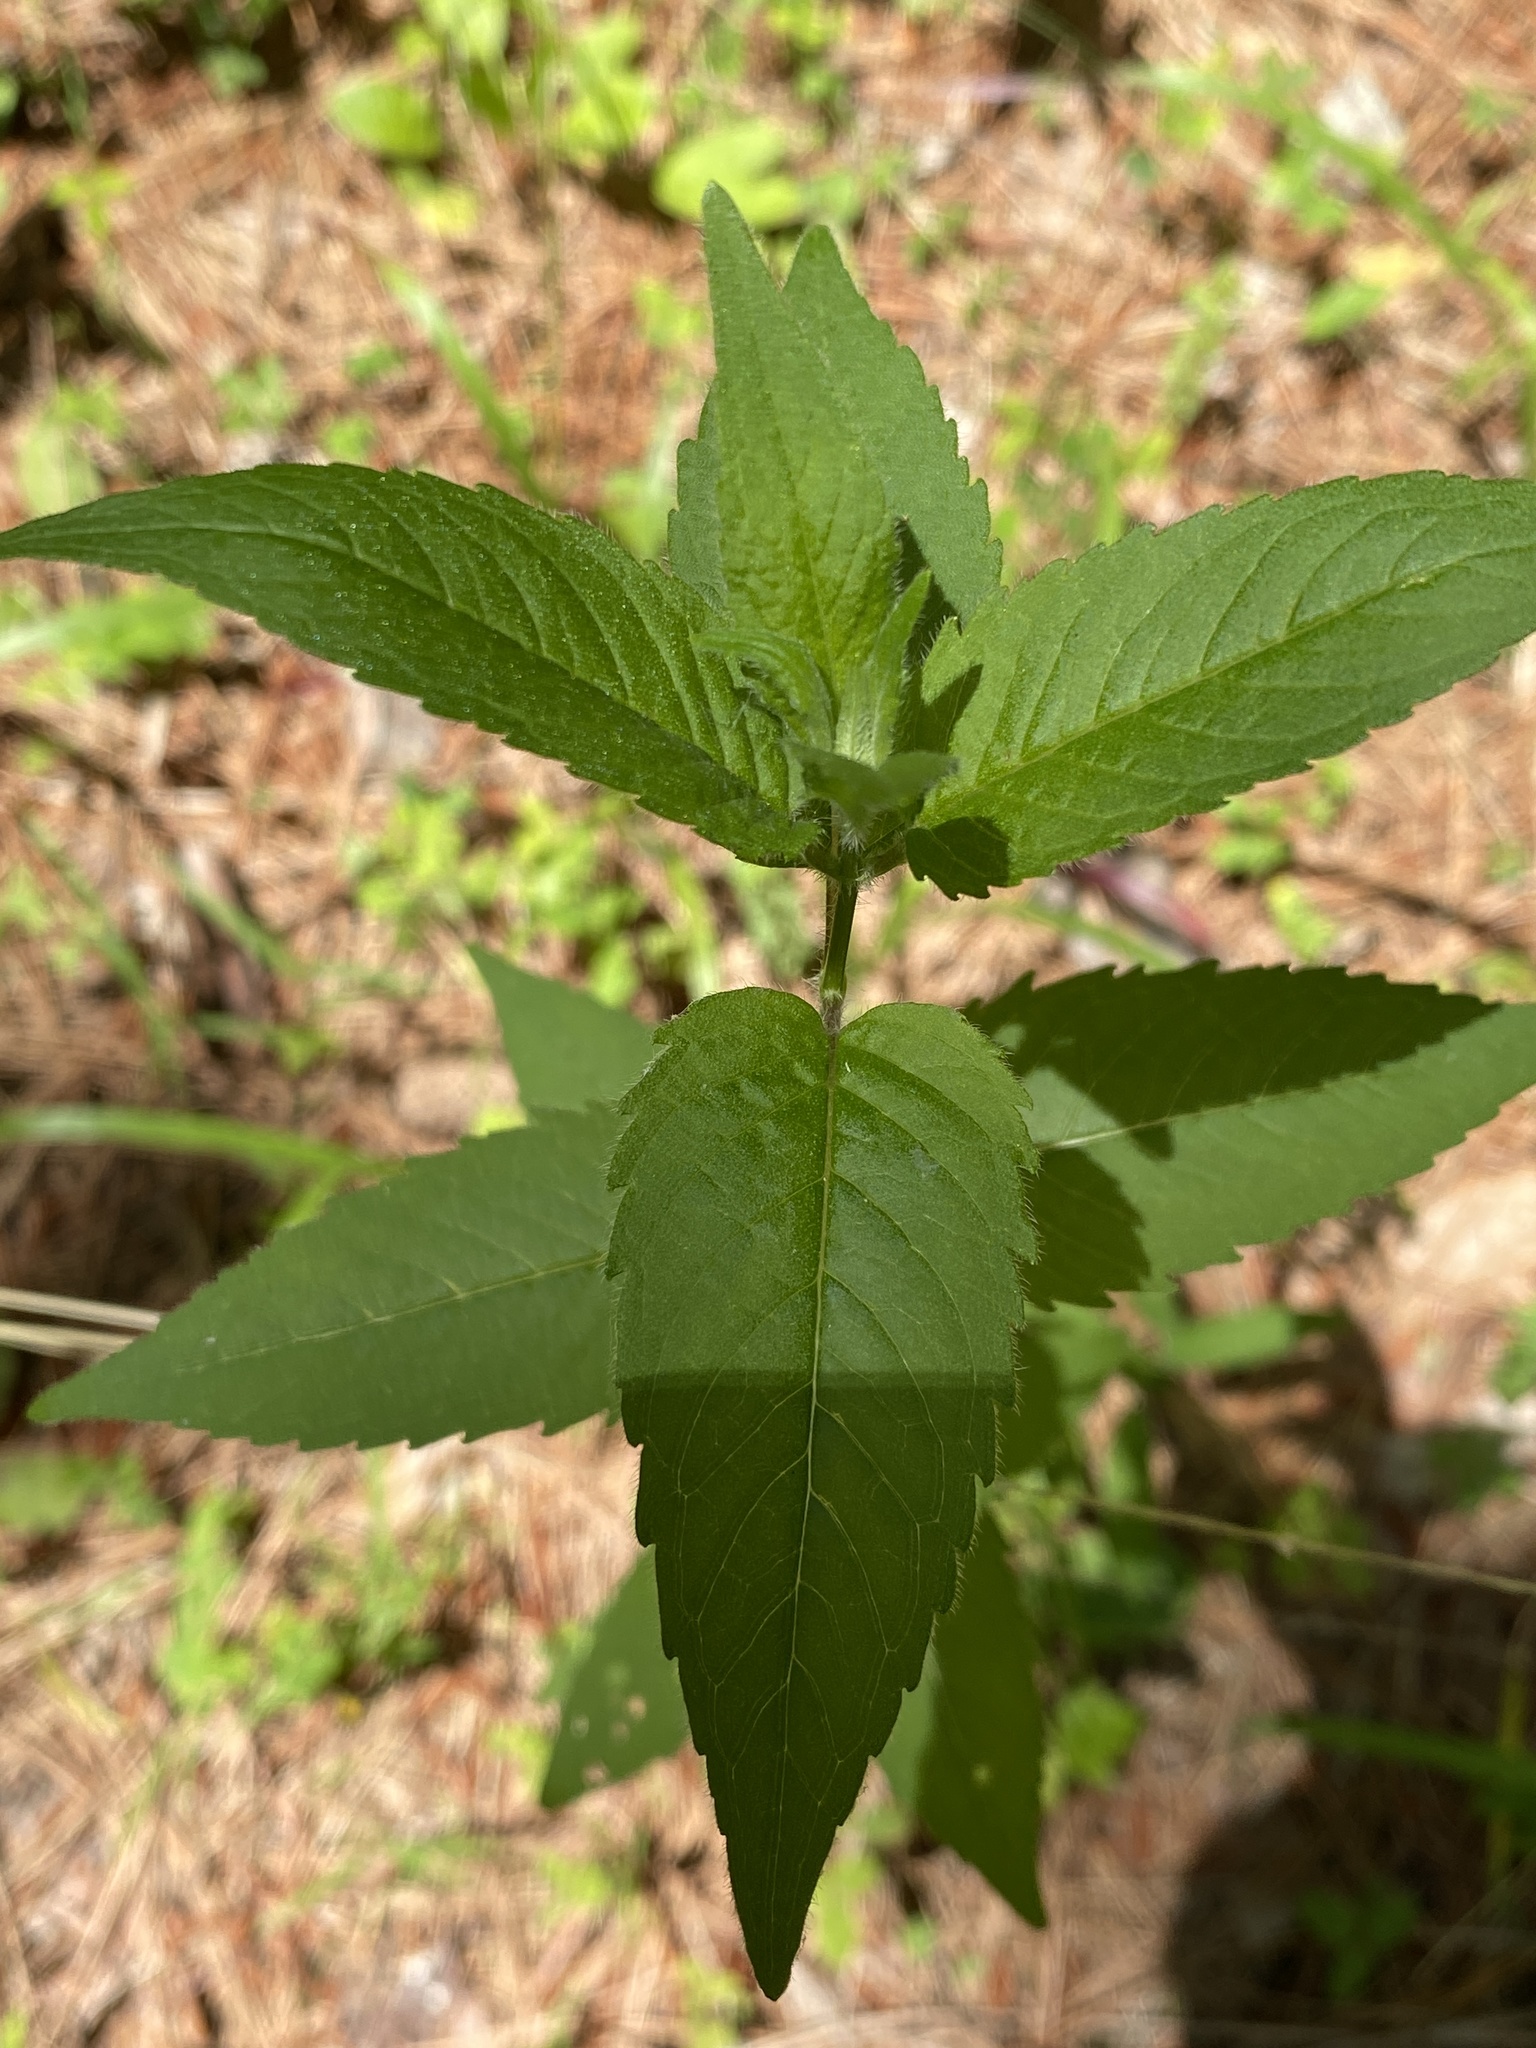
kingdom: Plantae
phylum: Tracheophyta
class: Magnoliopsida
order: Lamiales
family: Lamiaceae
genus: Monarda
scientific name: Monarda fistulosa
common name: Purple beebalm
